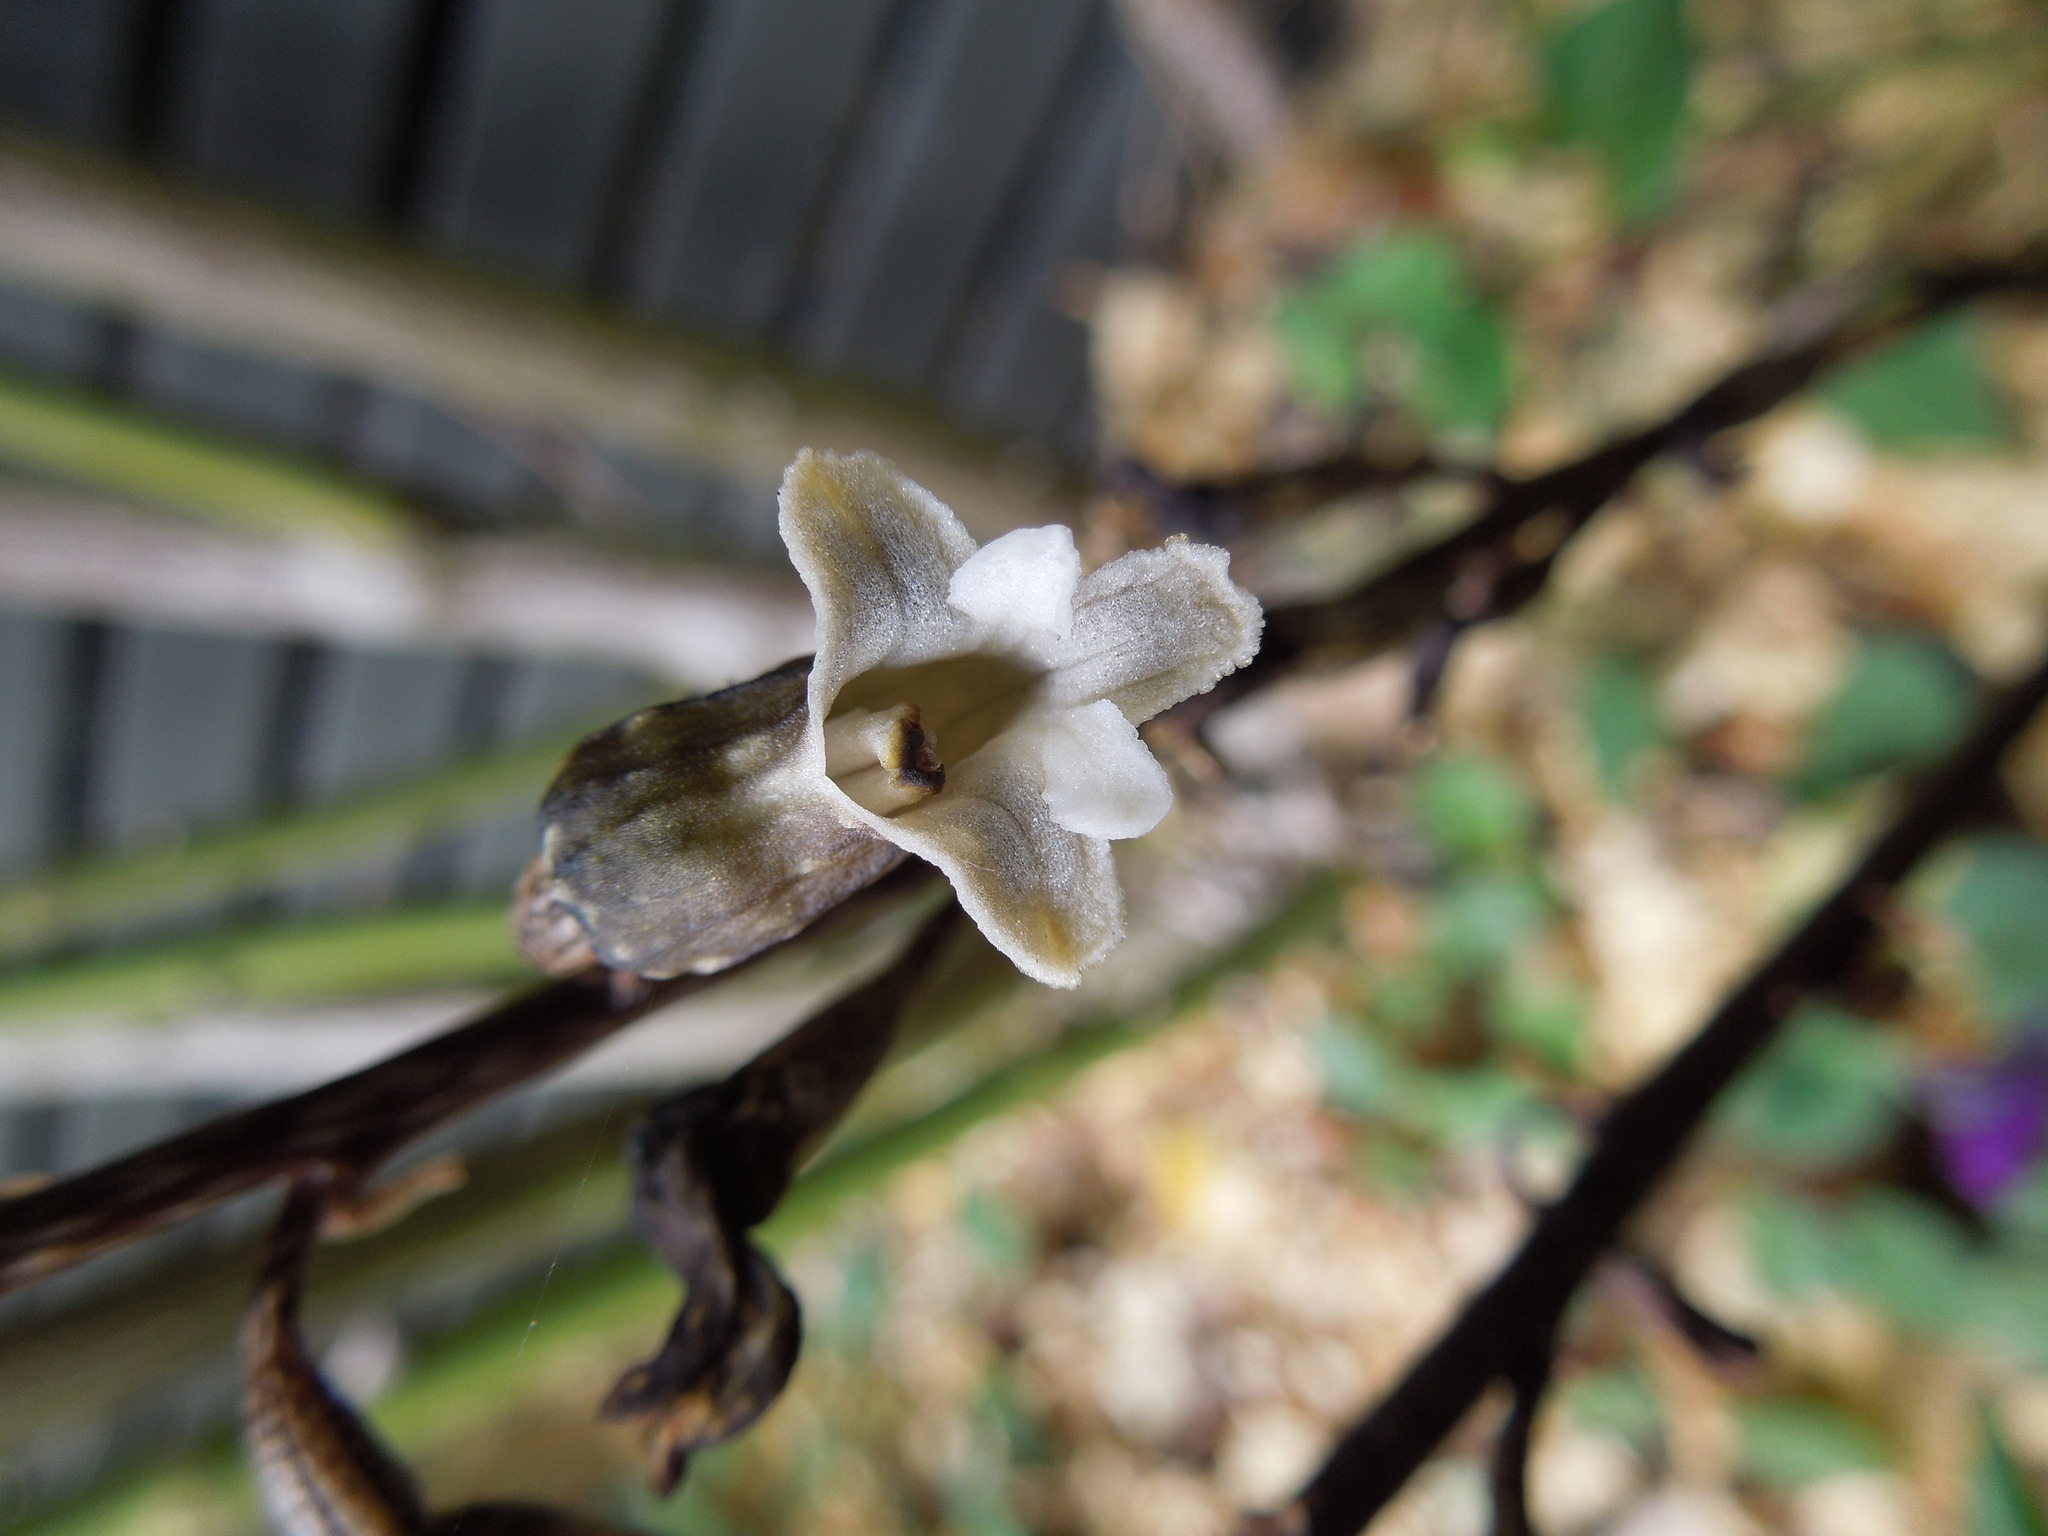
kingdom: Plantae
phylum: Tracheophyta
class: Liliopsida
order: Asparagales
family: Orchidaceae
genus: Gastrodia
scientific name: Gastrodia cunninghamii
